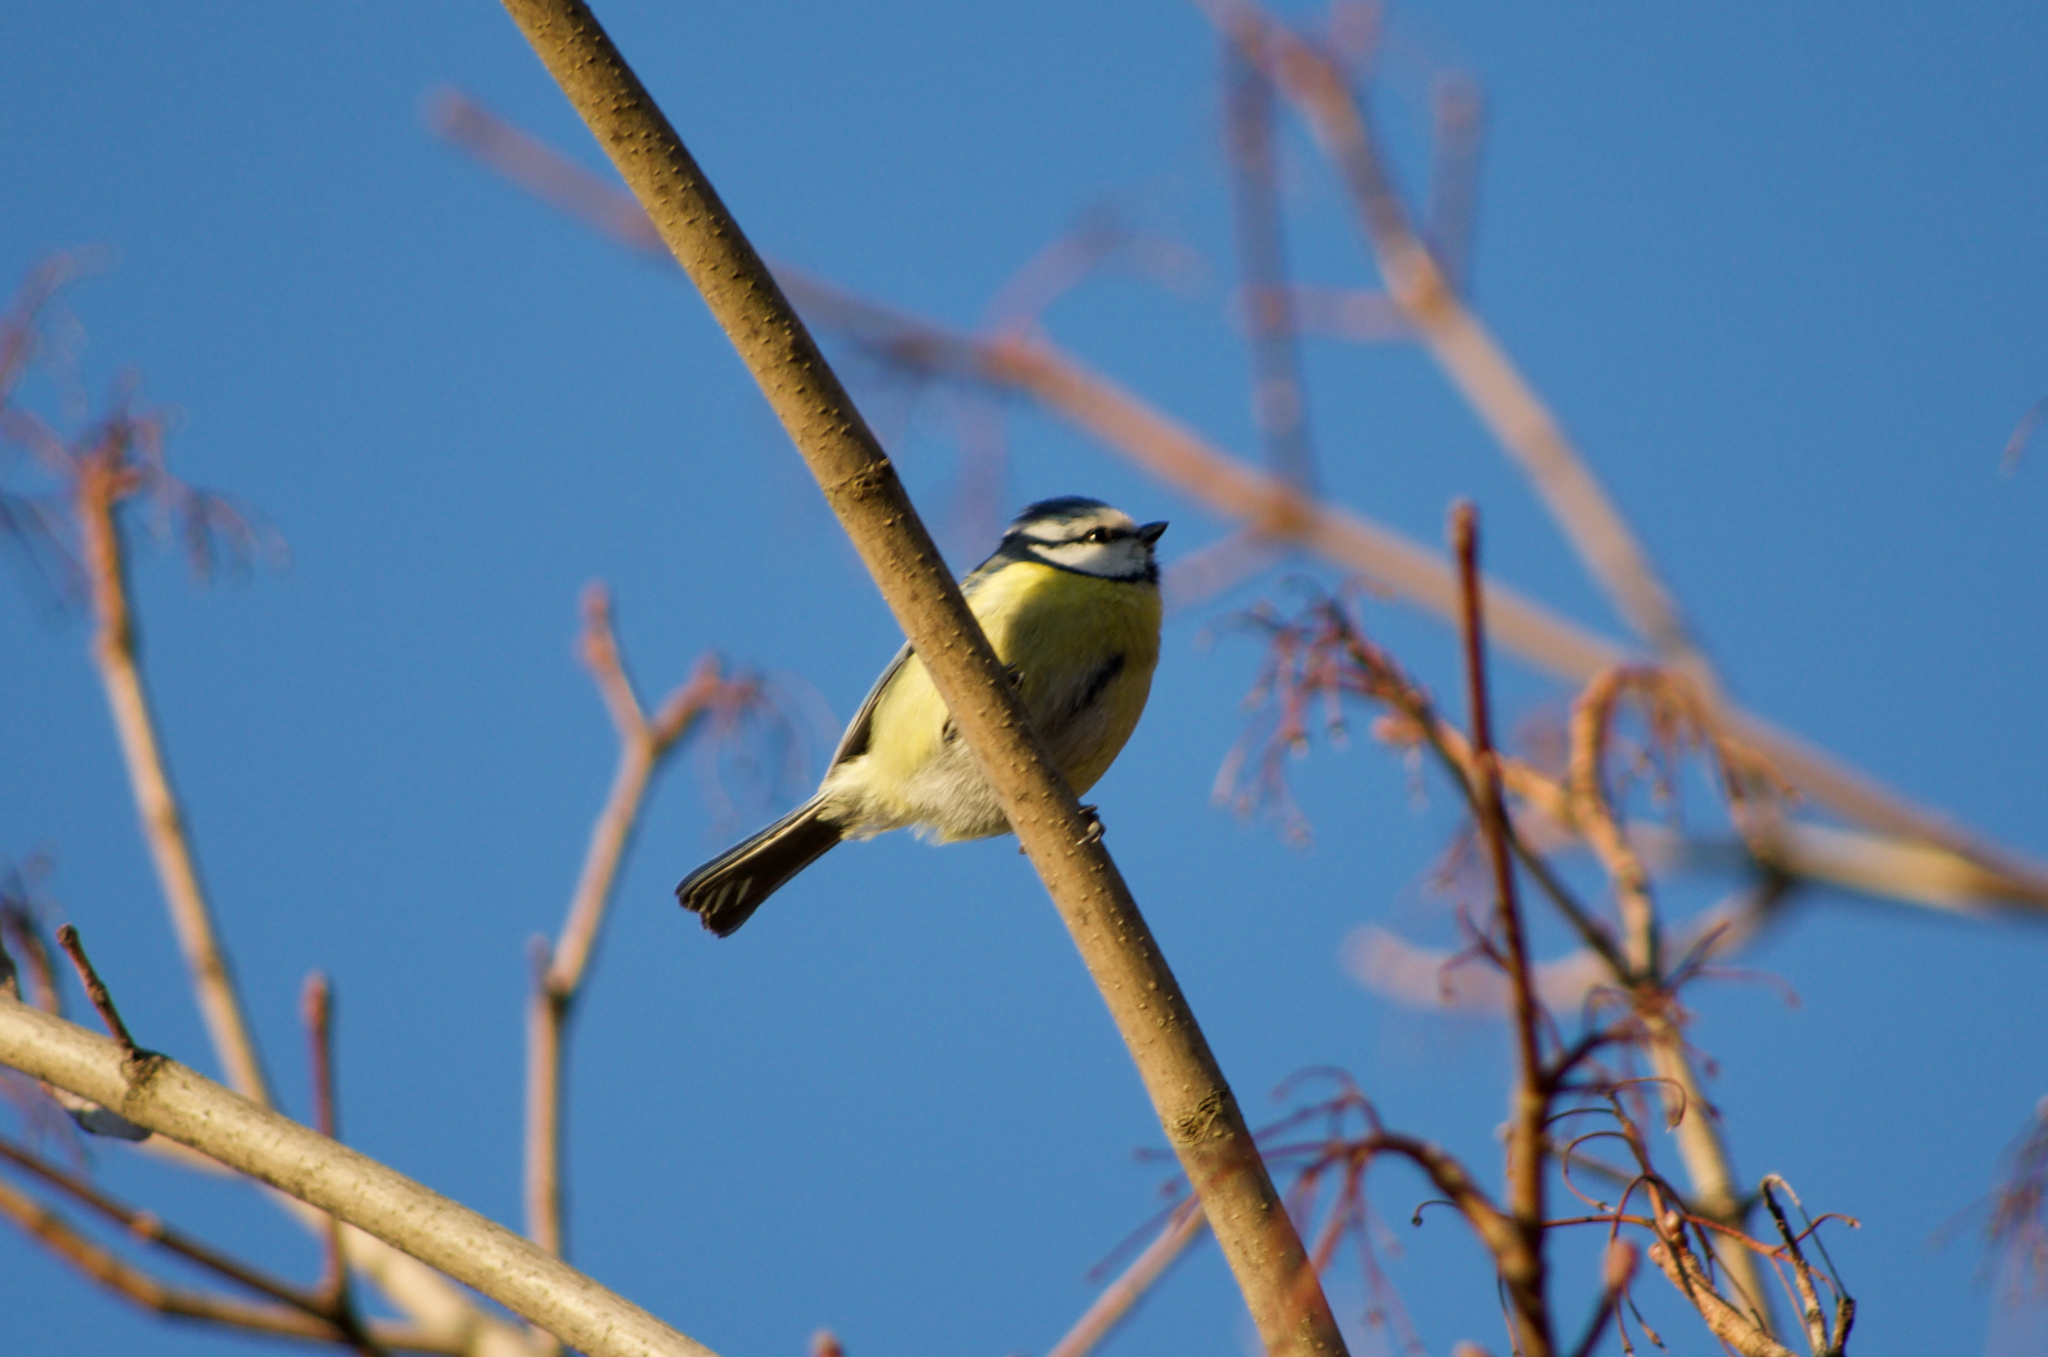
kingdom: Animalia
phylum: Chordata
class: Aves
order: Passeriformes
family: Paridae
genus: Cyanistes
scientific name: Cyanistes caeruleus
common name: Eurasian blue tit
